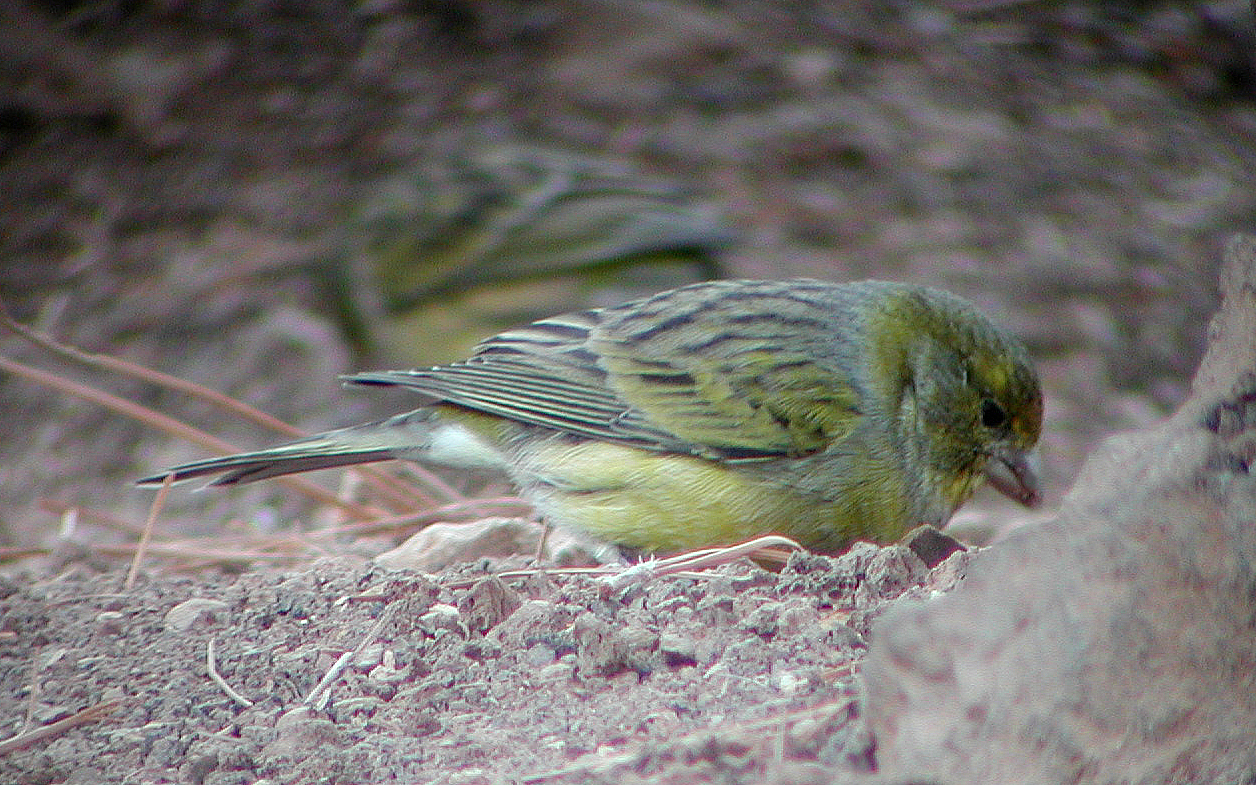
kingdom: Animalia
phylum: Chordata
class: Aves
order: Passeriformes
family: Fringillidae
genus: Serinus
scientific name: Serinus canaria
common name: Atlantic canary
